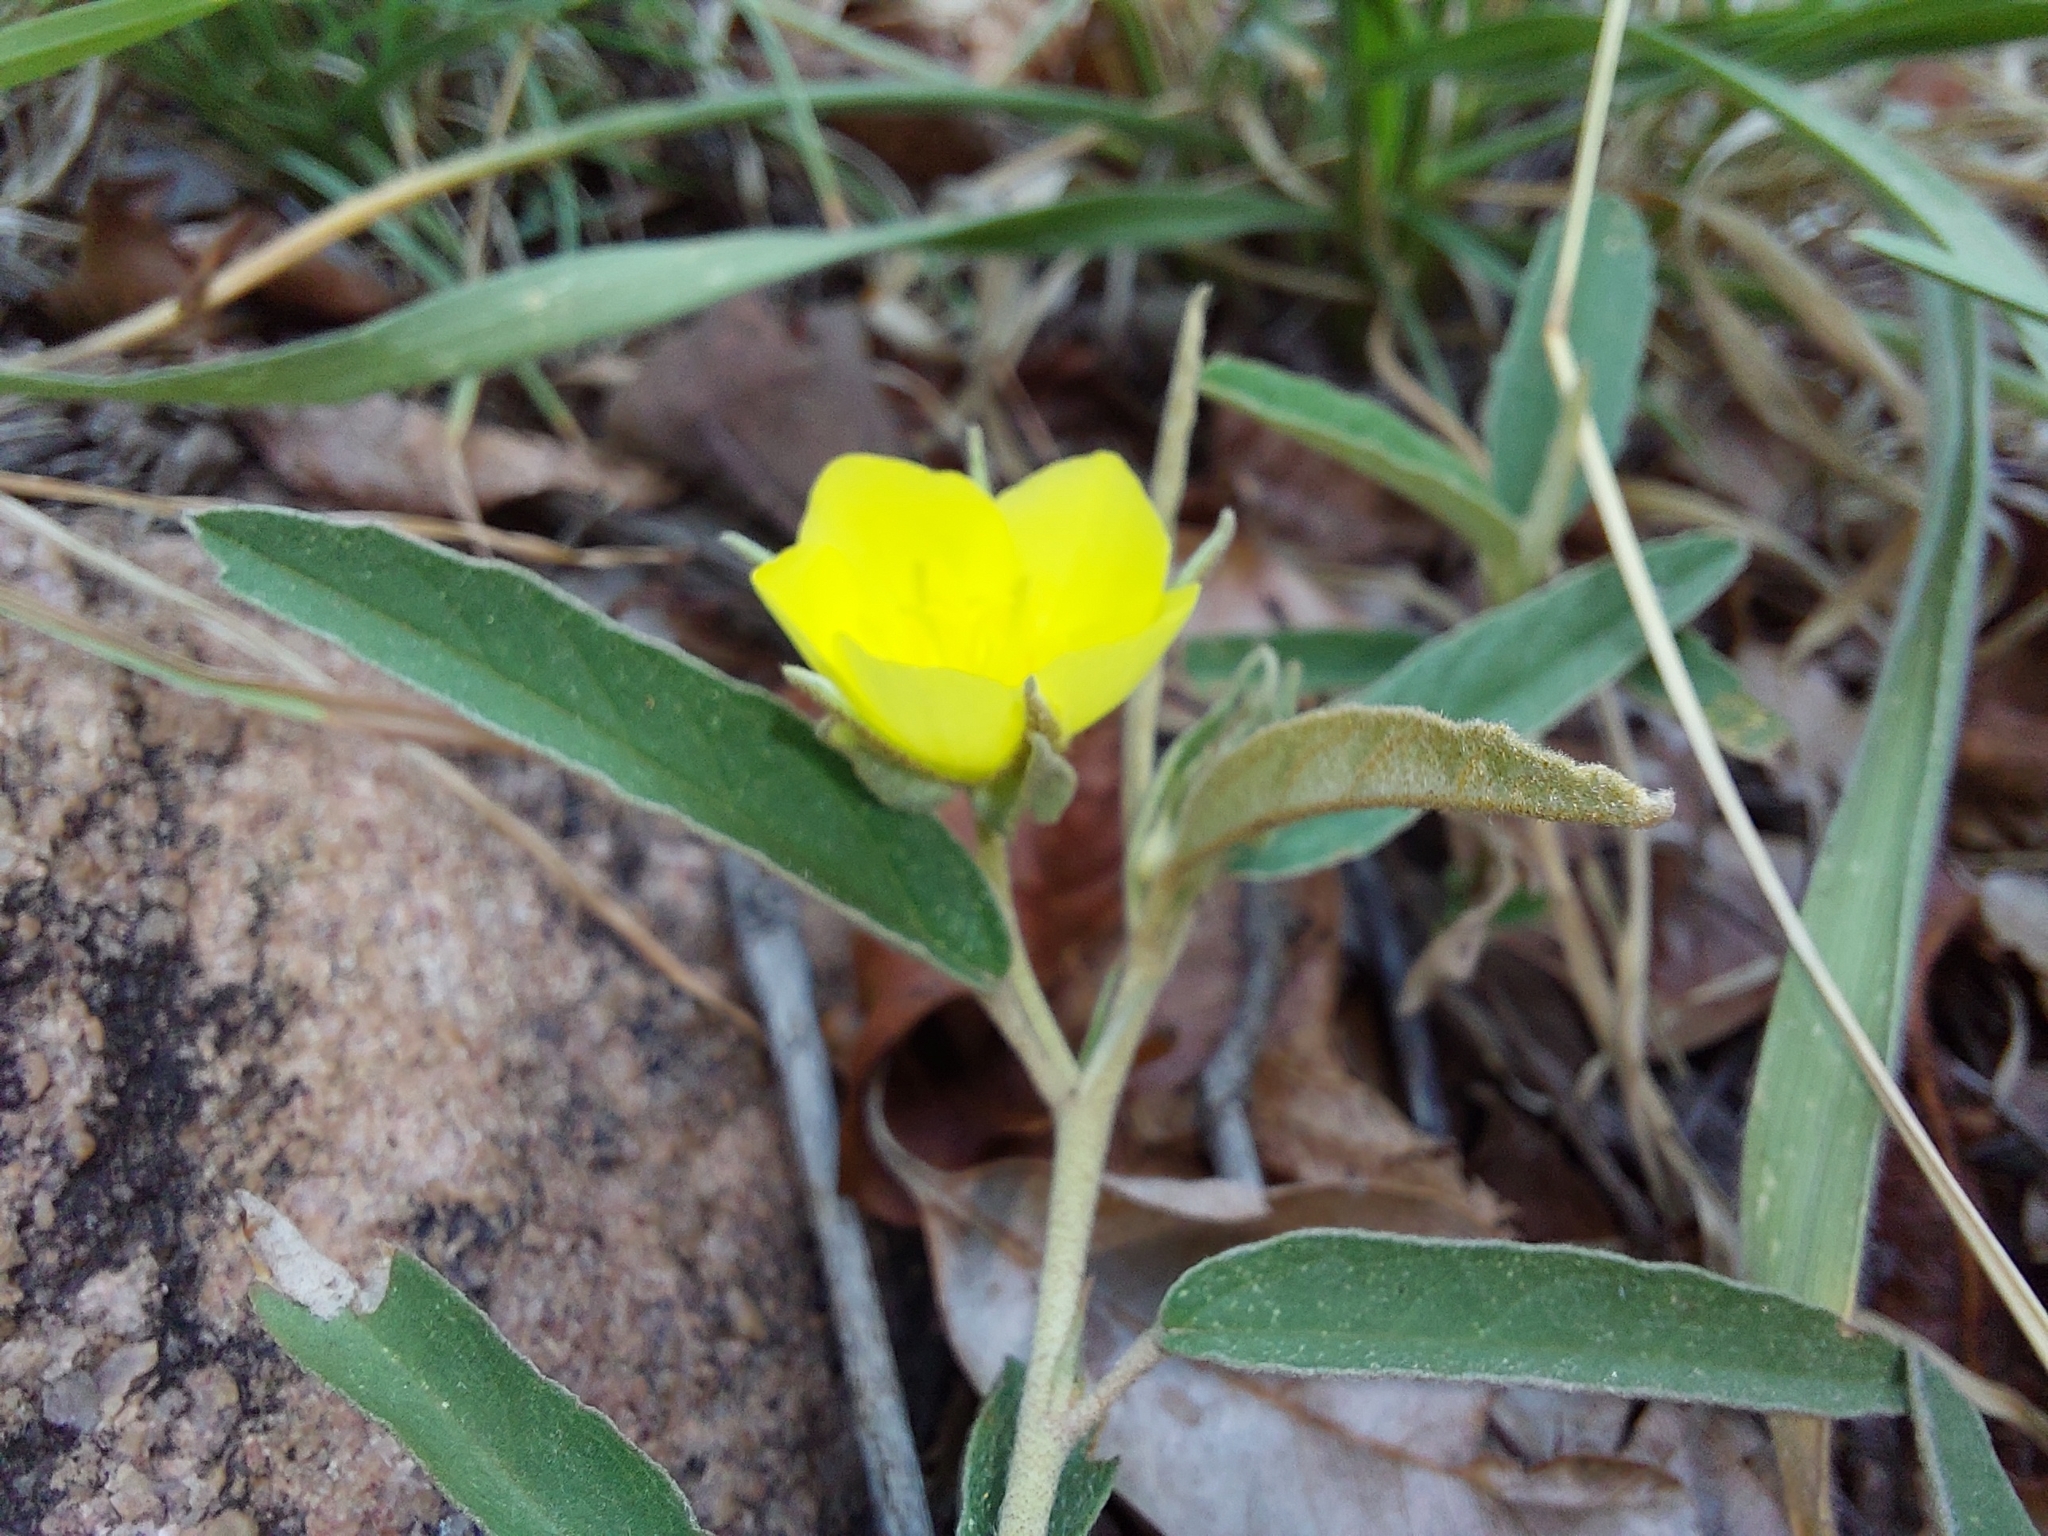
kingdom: Plantae
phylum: Tracheophyta
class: Magnoliopsida
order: Malvales
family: Malvaceae
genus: Melhania
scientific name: Melhania prostrata
